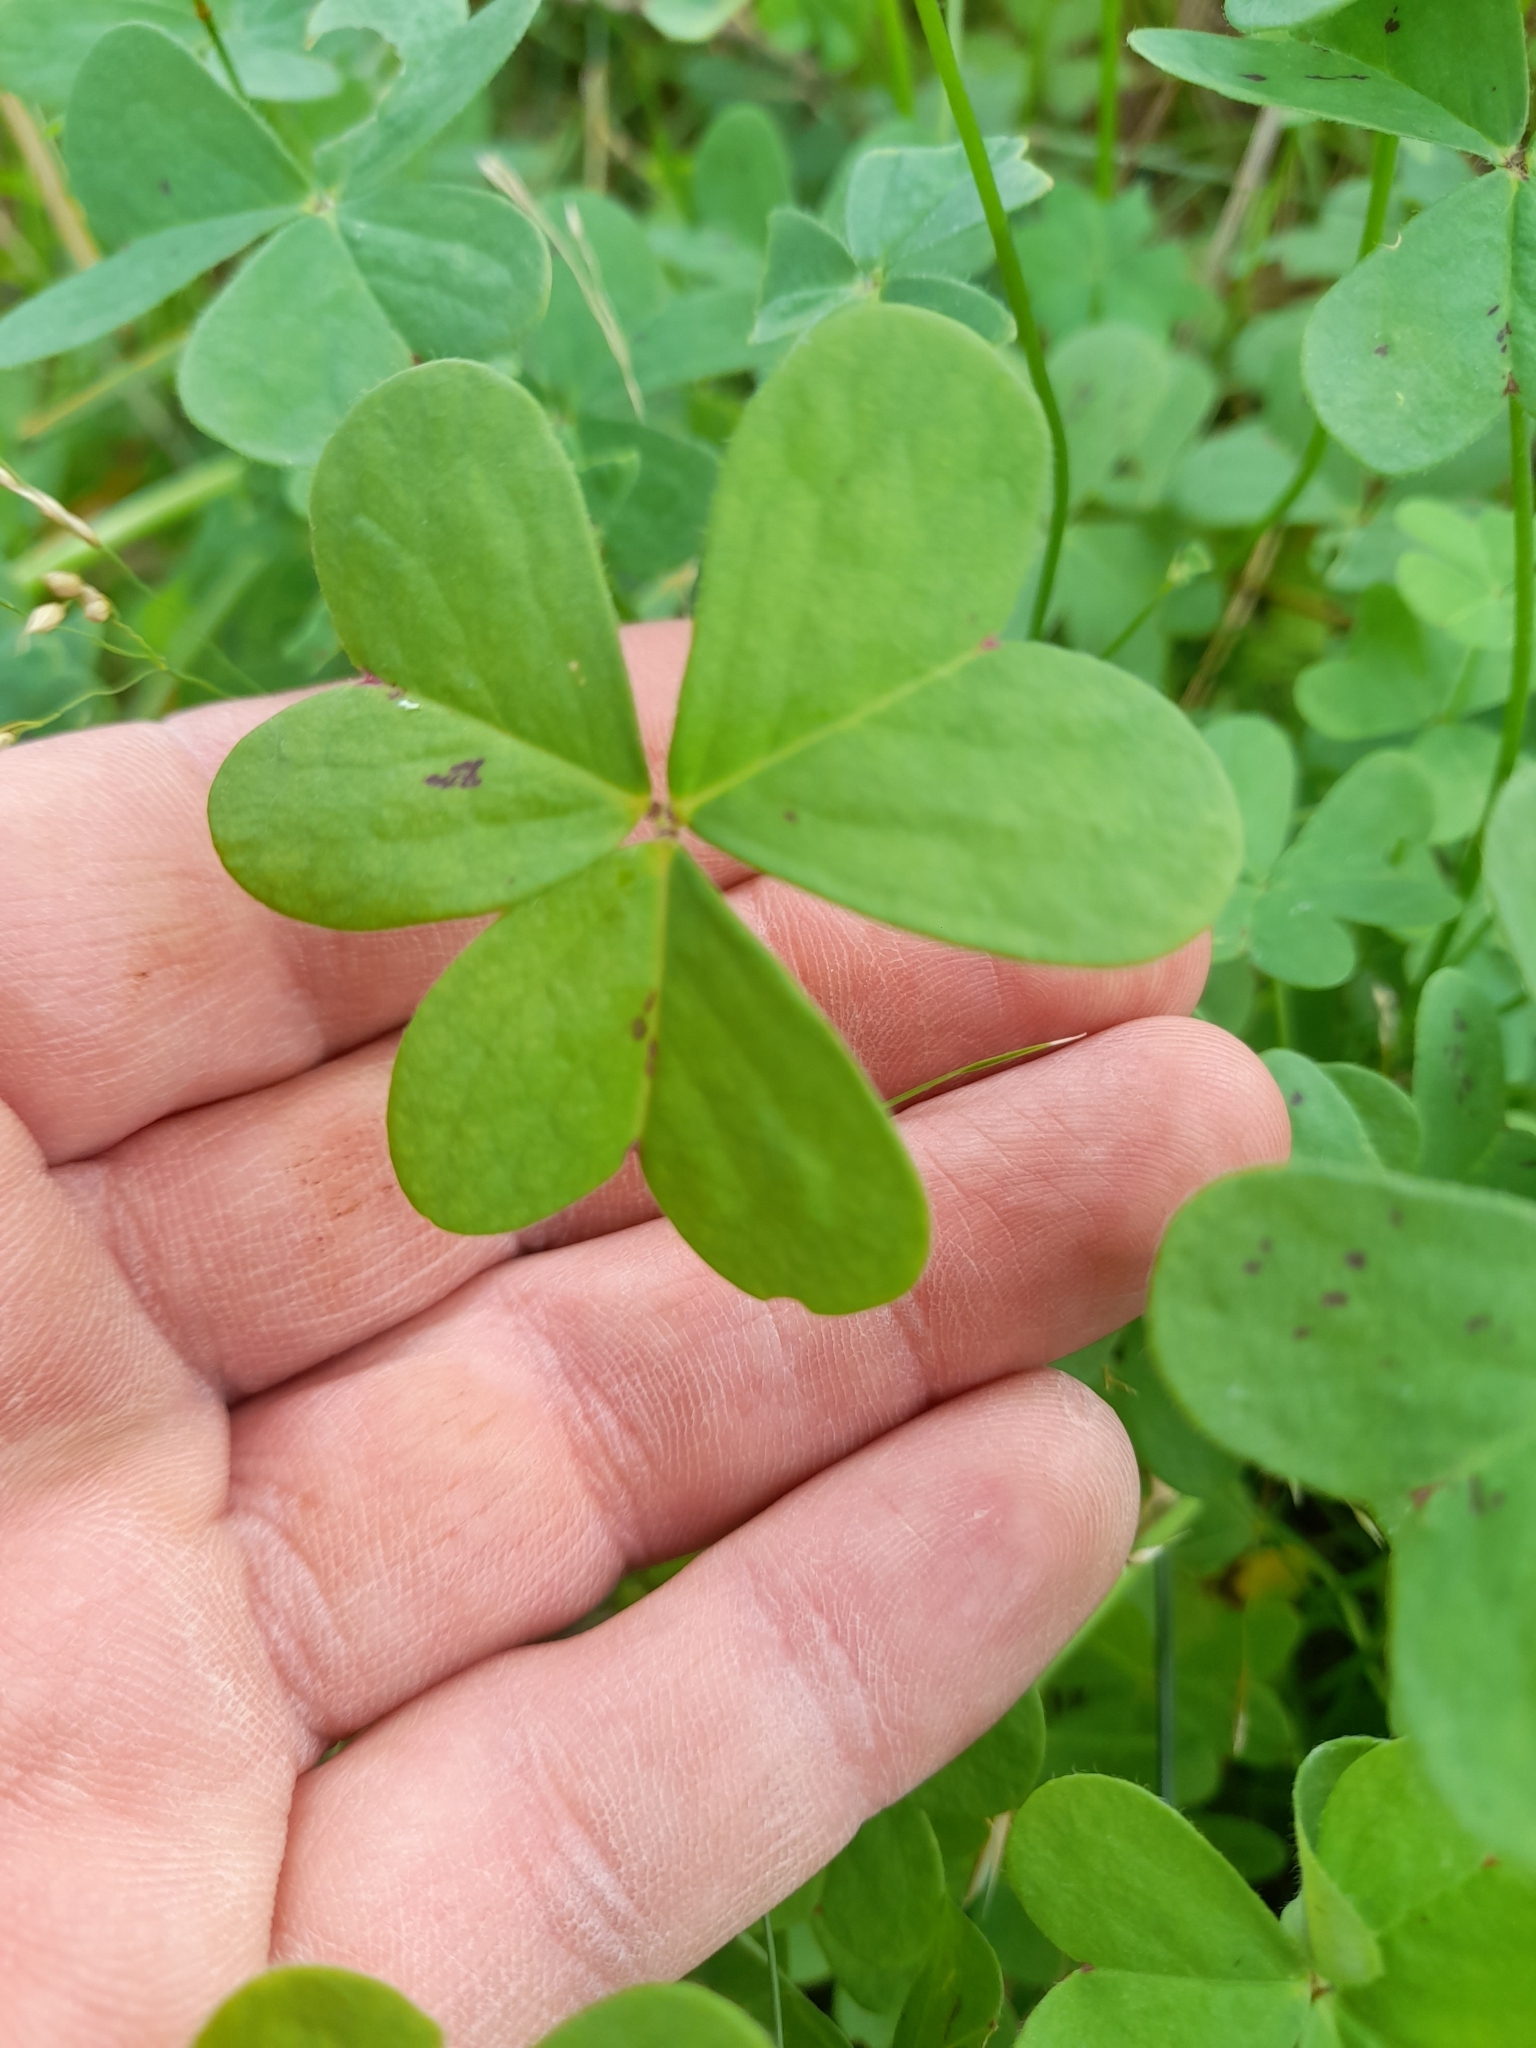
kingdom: Plantae
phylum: Tracheophyta
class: Magnoliopsida
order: Oxalidales
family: Oxalidaceae
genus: Oxalis
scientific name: Oxalis pes-caprae
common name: Bermuda-buttercup
